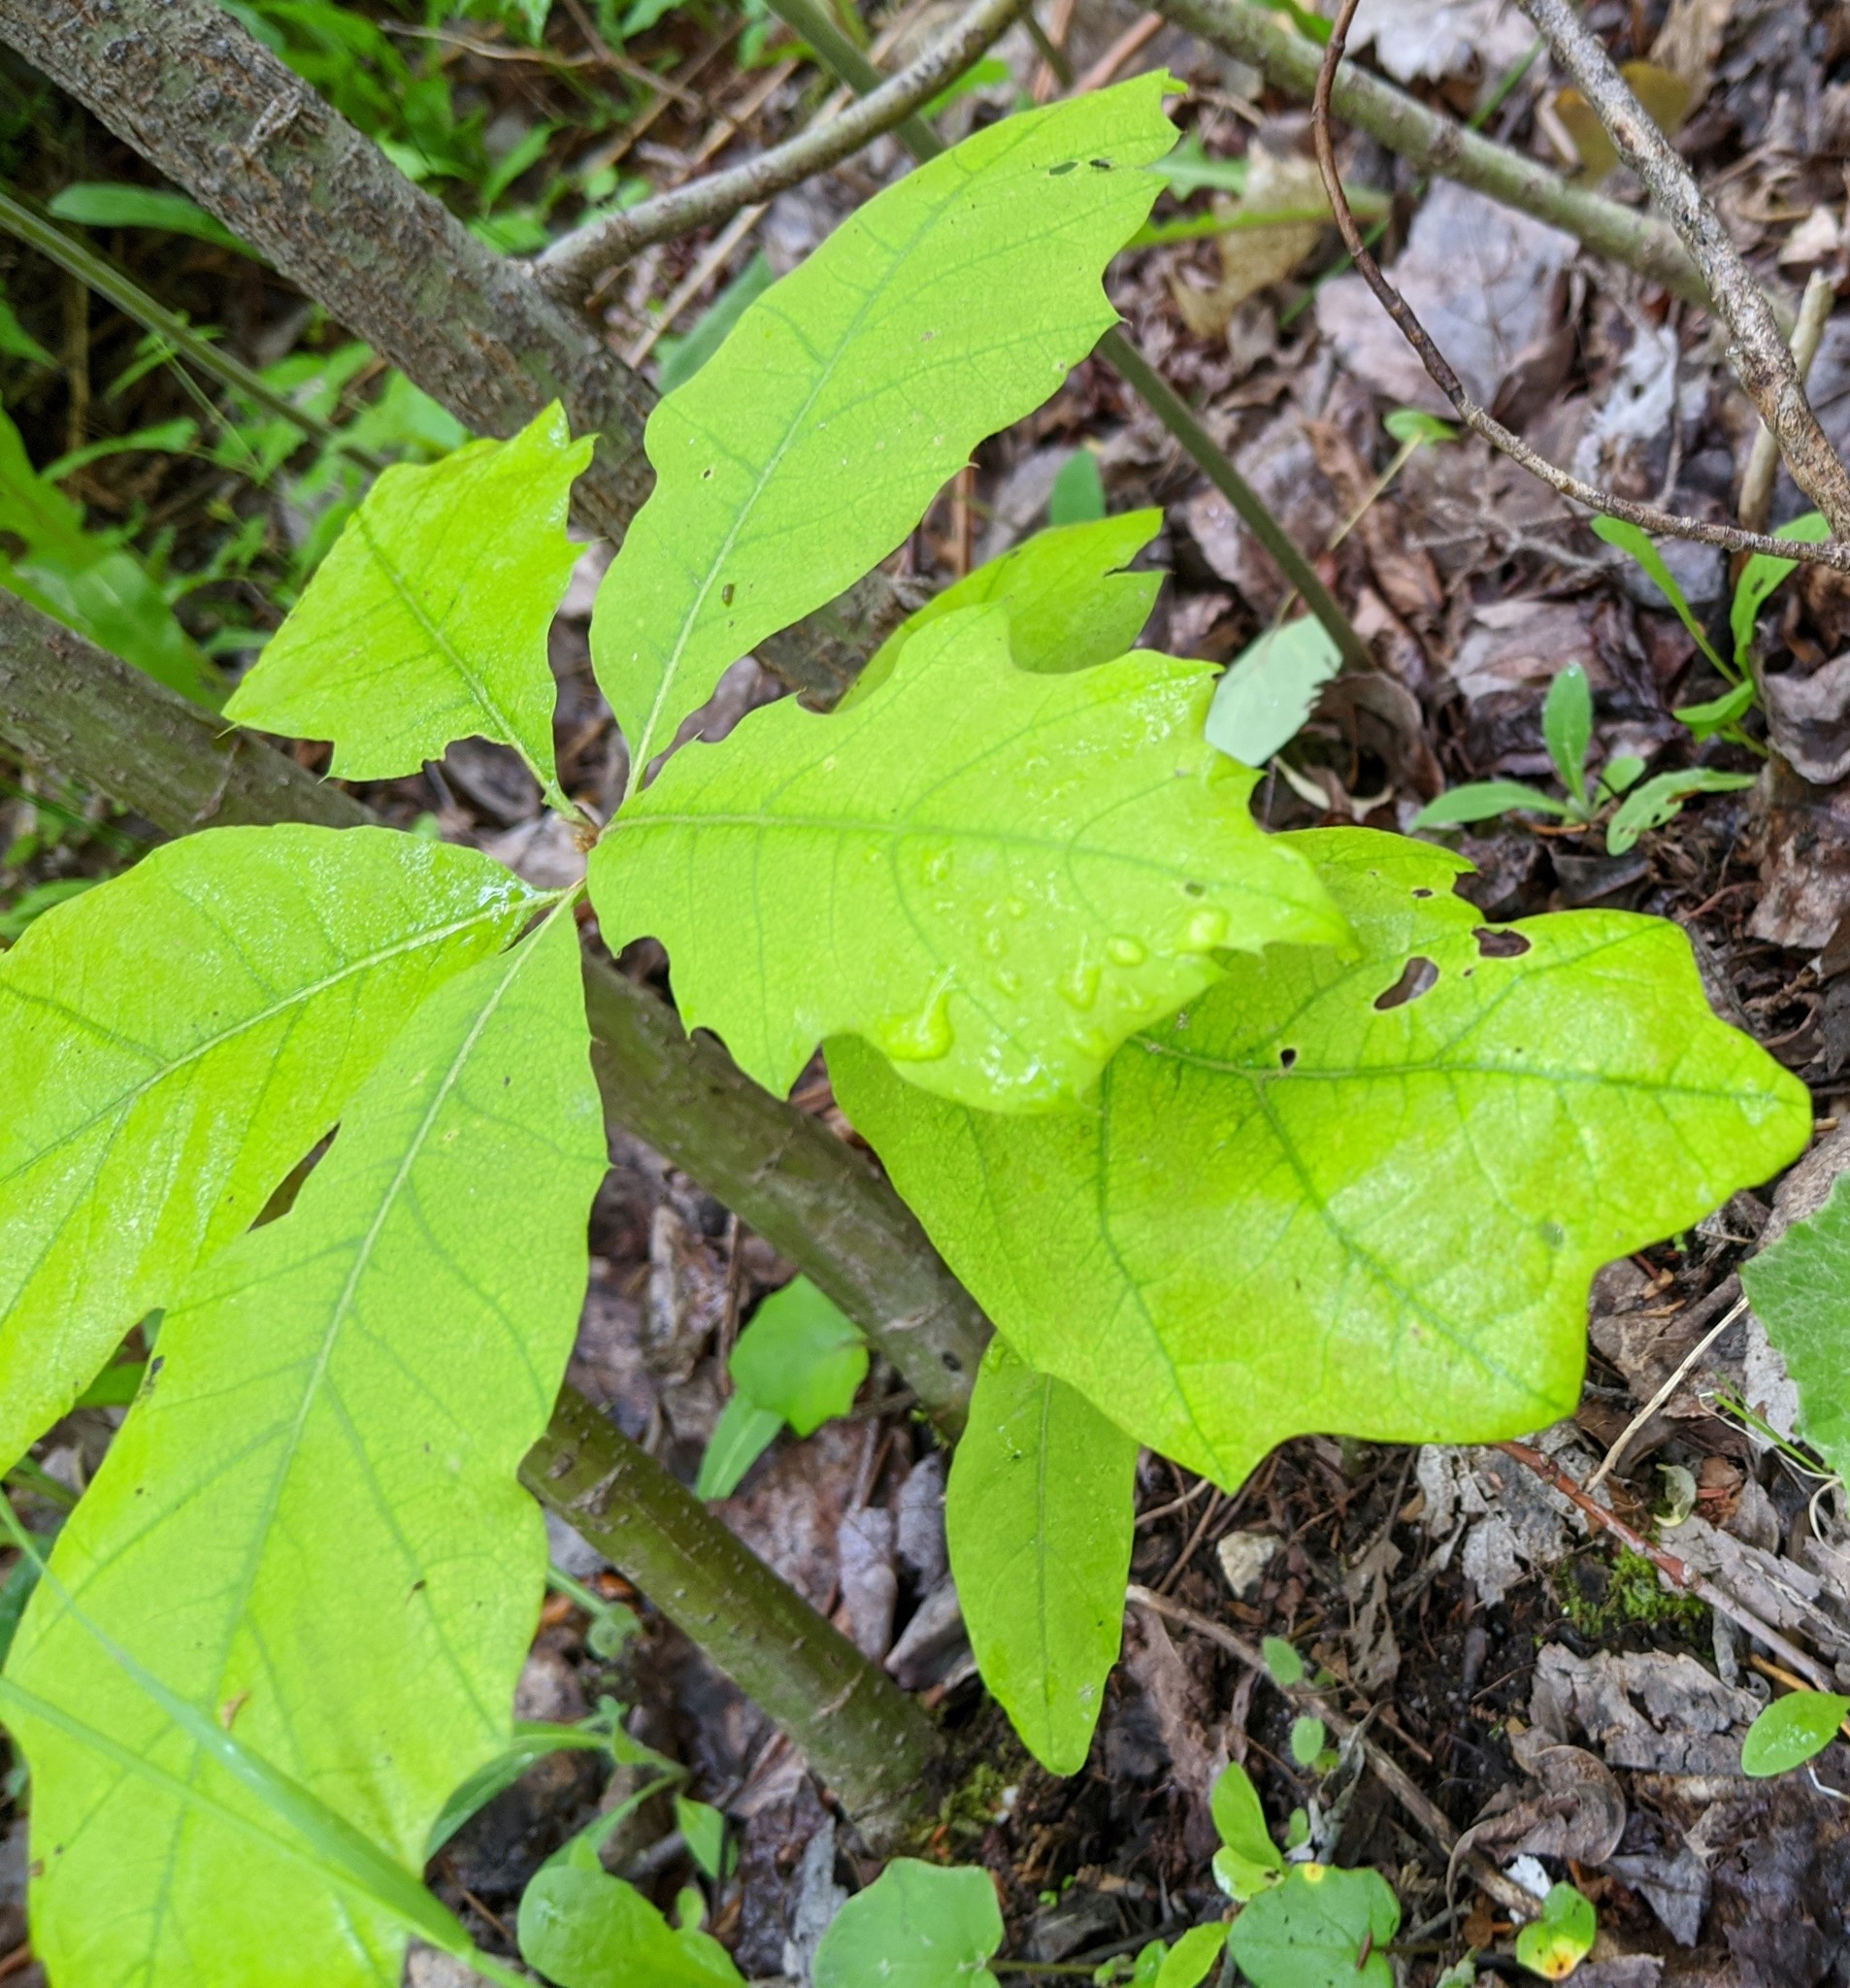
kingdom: Plantae
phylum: Tracheophyta
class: Magnoliopsida
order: Fagales
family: Fagaceae
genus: Quercus
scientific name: Quercus rubra
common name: Red oak
